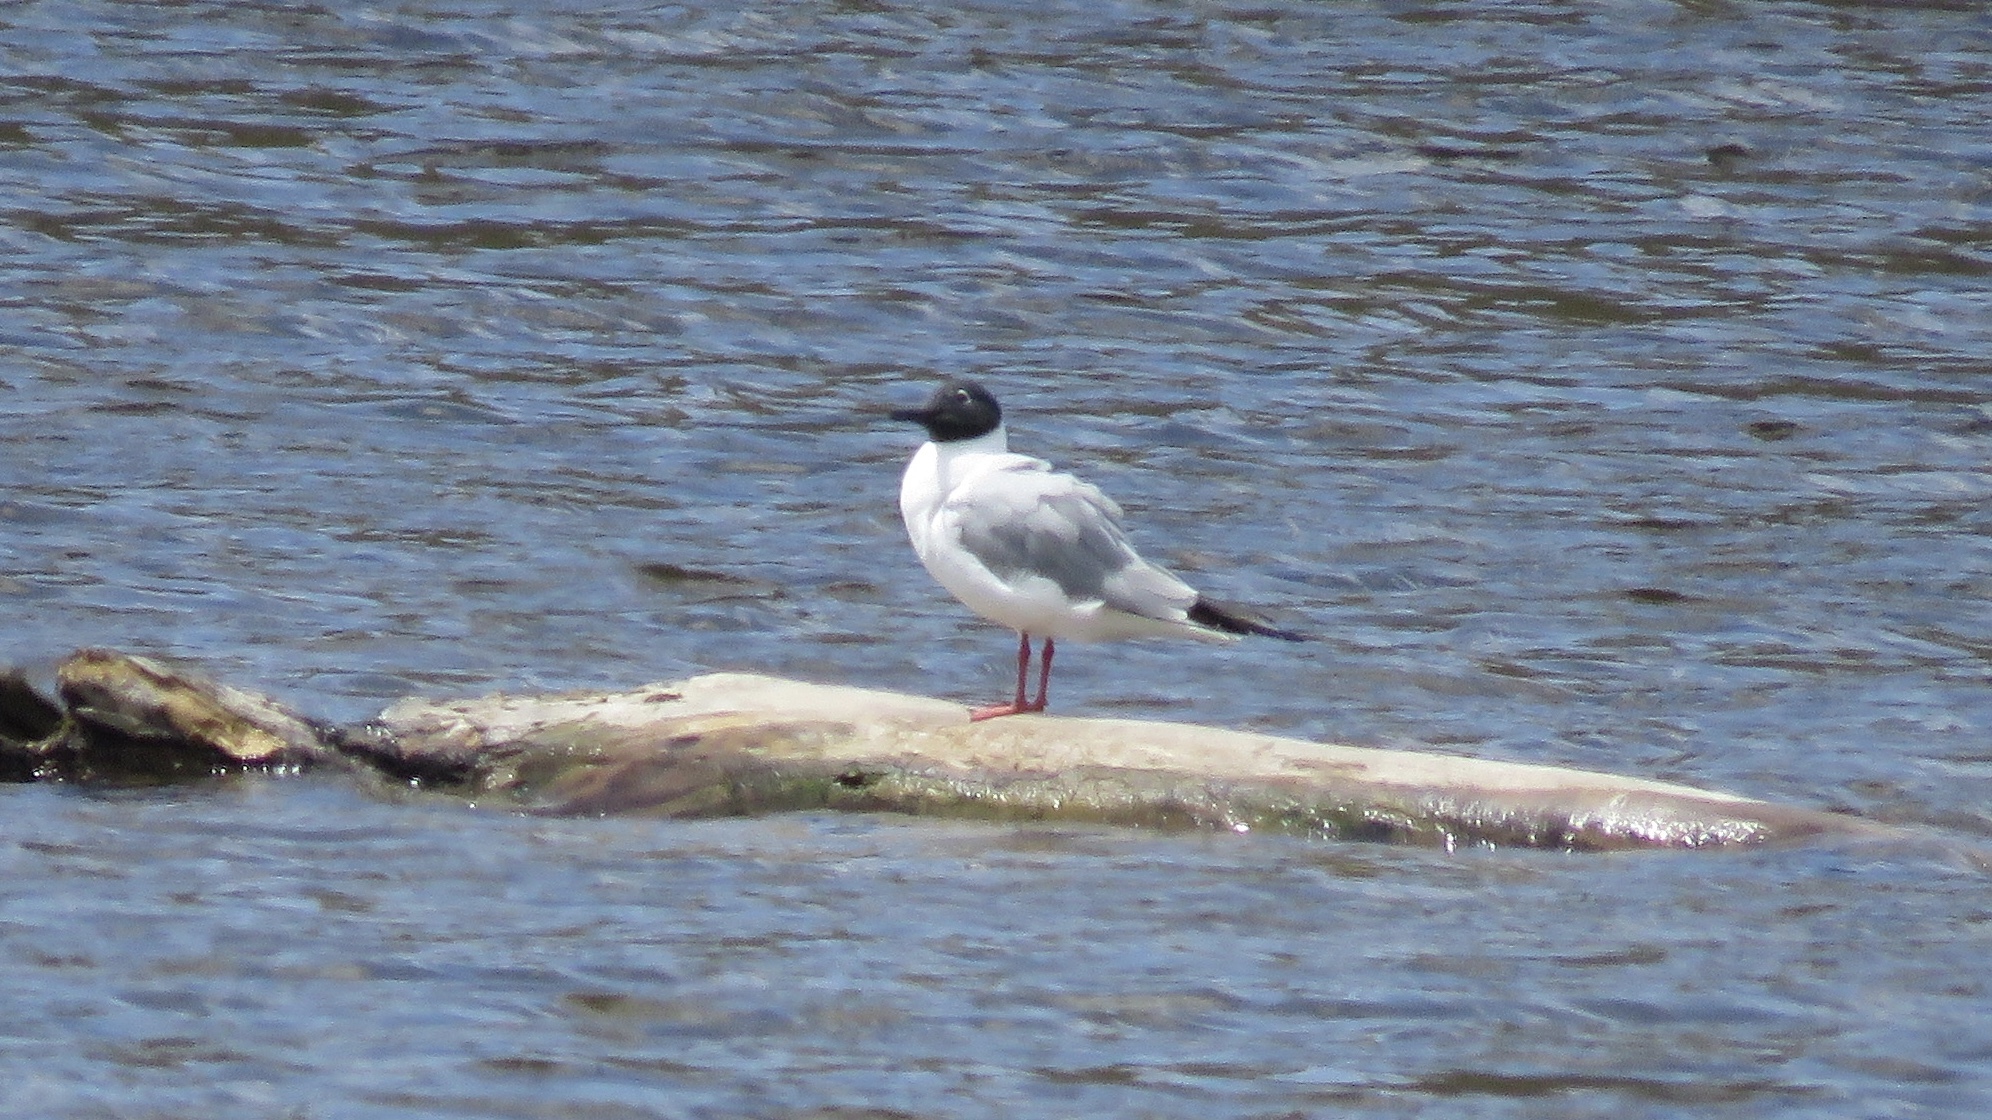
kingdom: Animalia
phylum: Chordata
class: Aves
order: Charadriiformes
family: Laridae
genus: Chroicocephalus
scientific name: Chroicocephalus philadelphia
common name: Bonaparte's gull
